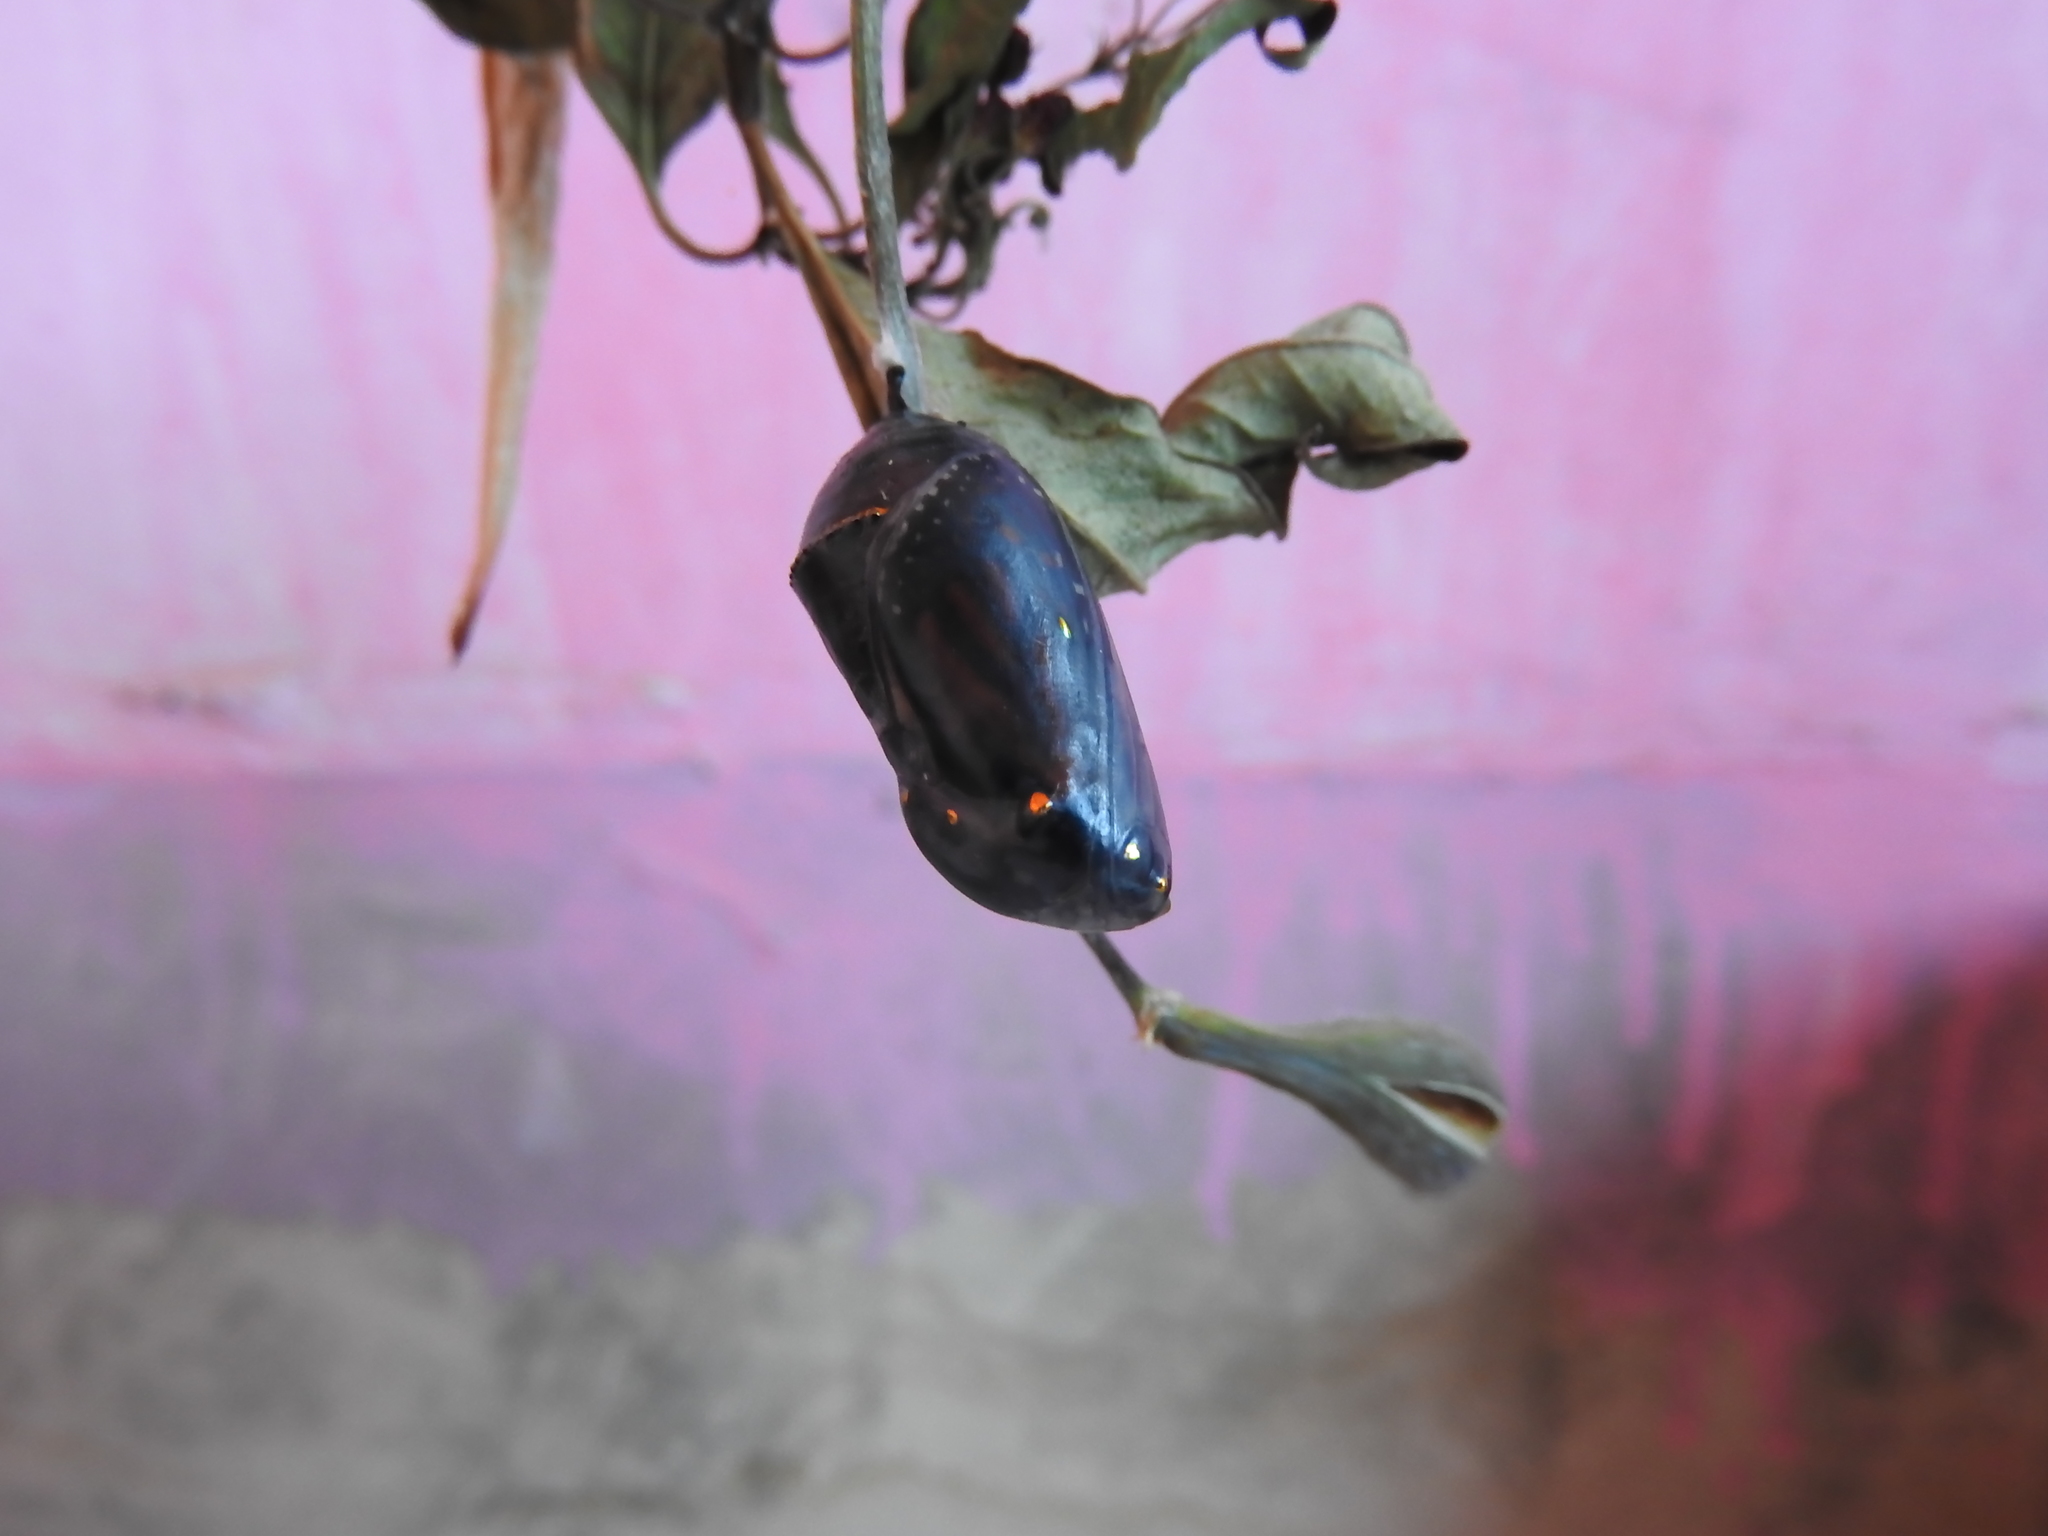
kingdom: Animalia
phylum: Arthropoda
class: Insecta
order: Lepidoptera
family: Nymphalidae
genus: Danaus
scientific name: Danaus plexippus
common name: Monarch
